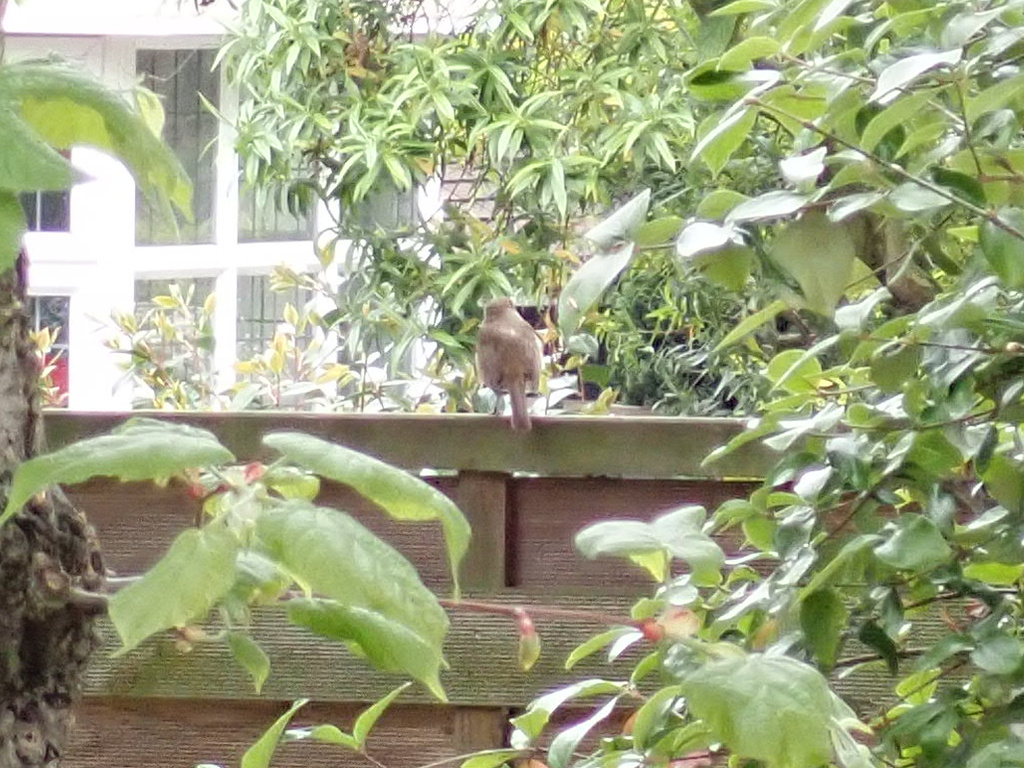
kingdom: Animalia
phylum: Chordata
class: Aves
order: Passeriformes
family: Muscicapidae
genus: Erithacus
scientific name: Erithacus rubecula
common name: European robin
